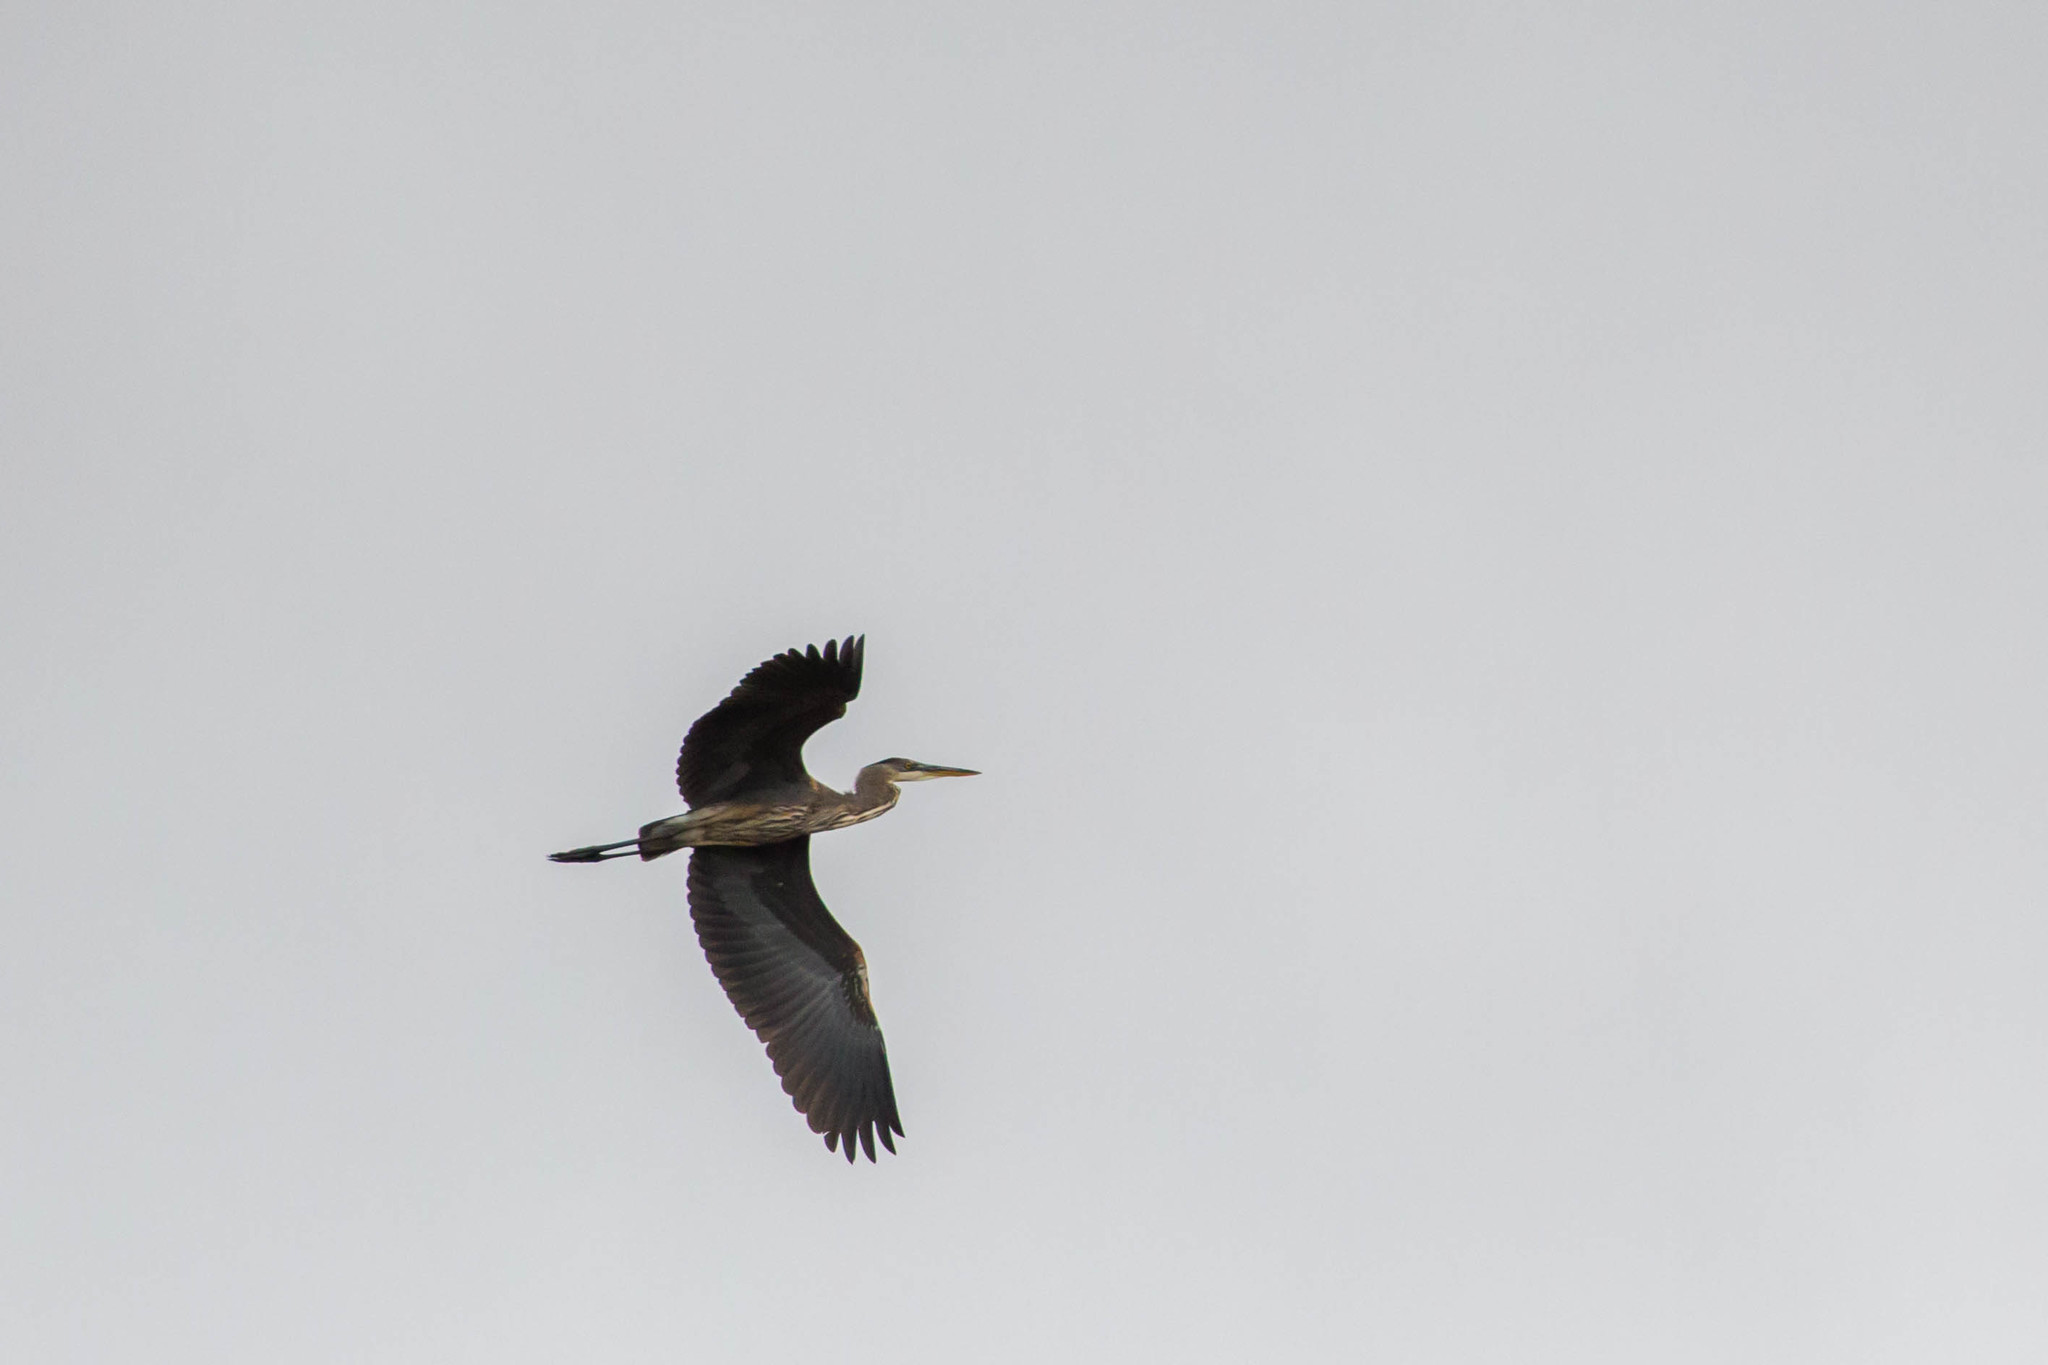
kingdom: Animalia
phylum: Chordata
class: Aves
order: Pelecaniformes
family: Ardeidae
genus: Ardea
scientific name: Ardea herodias
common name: Great blue heron
